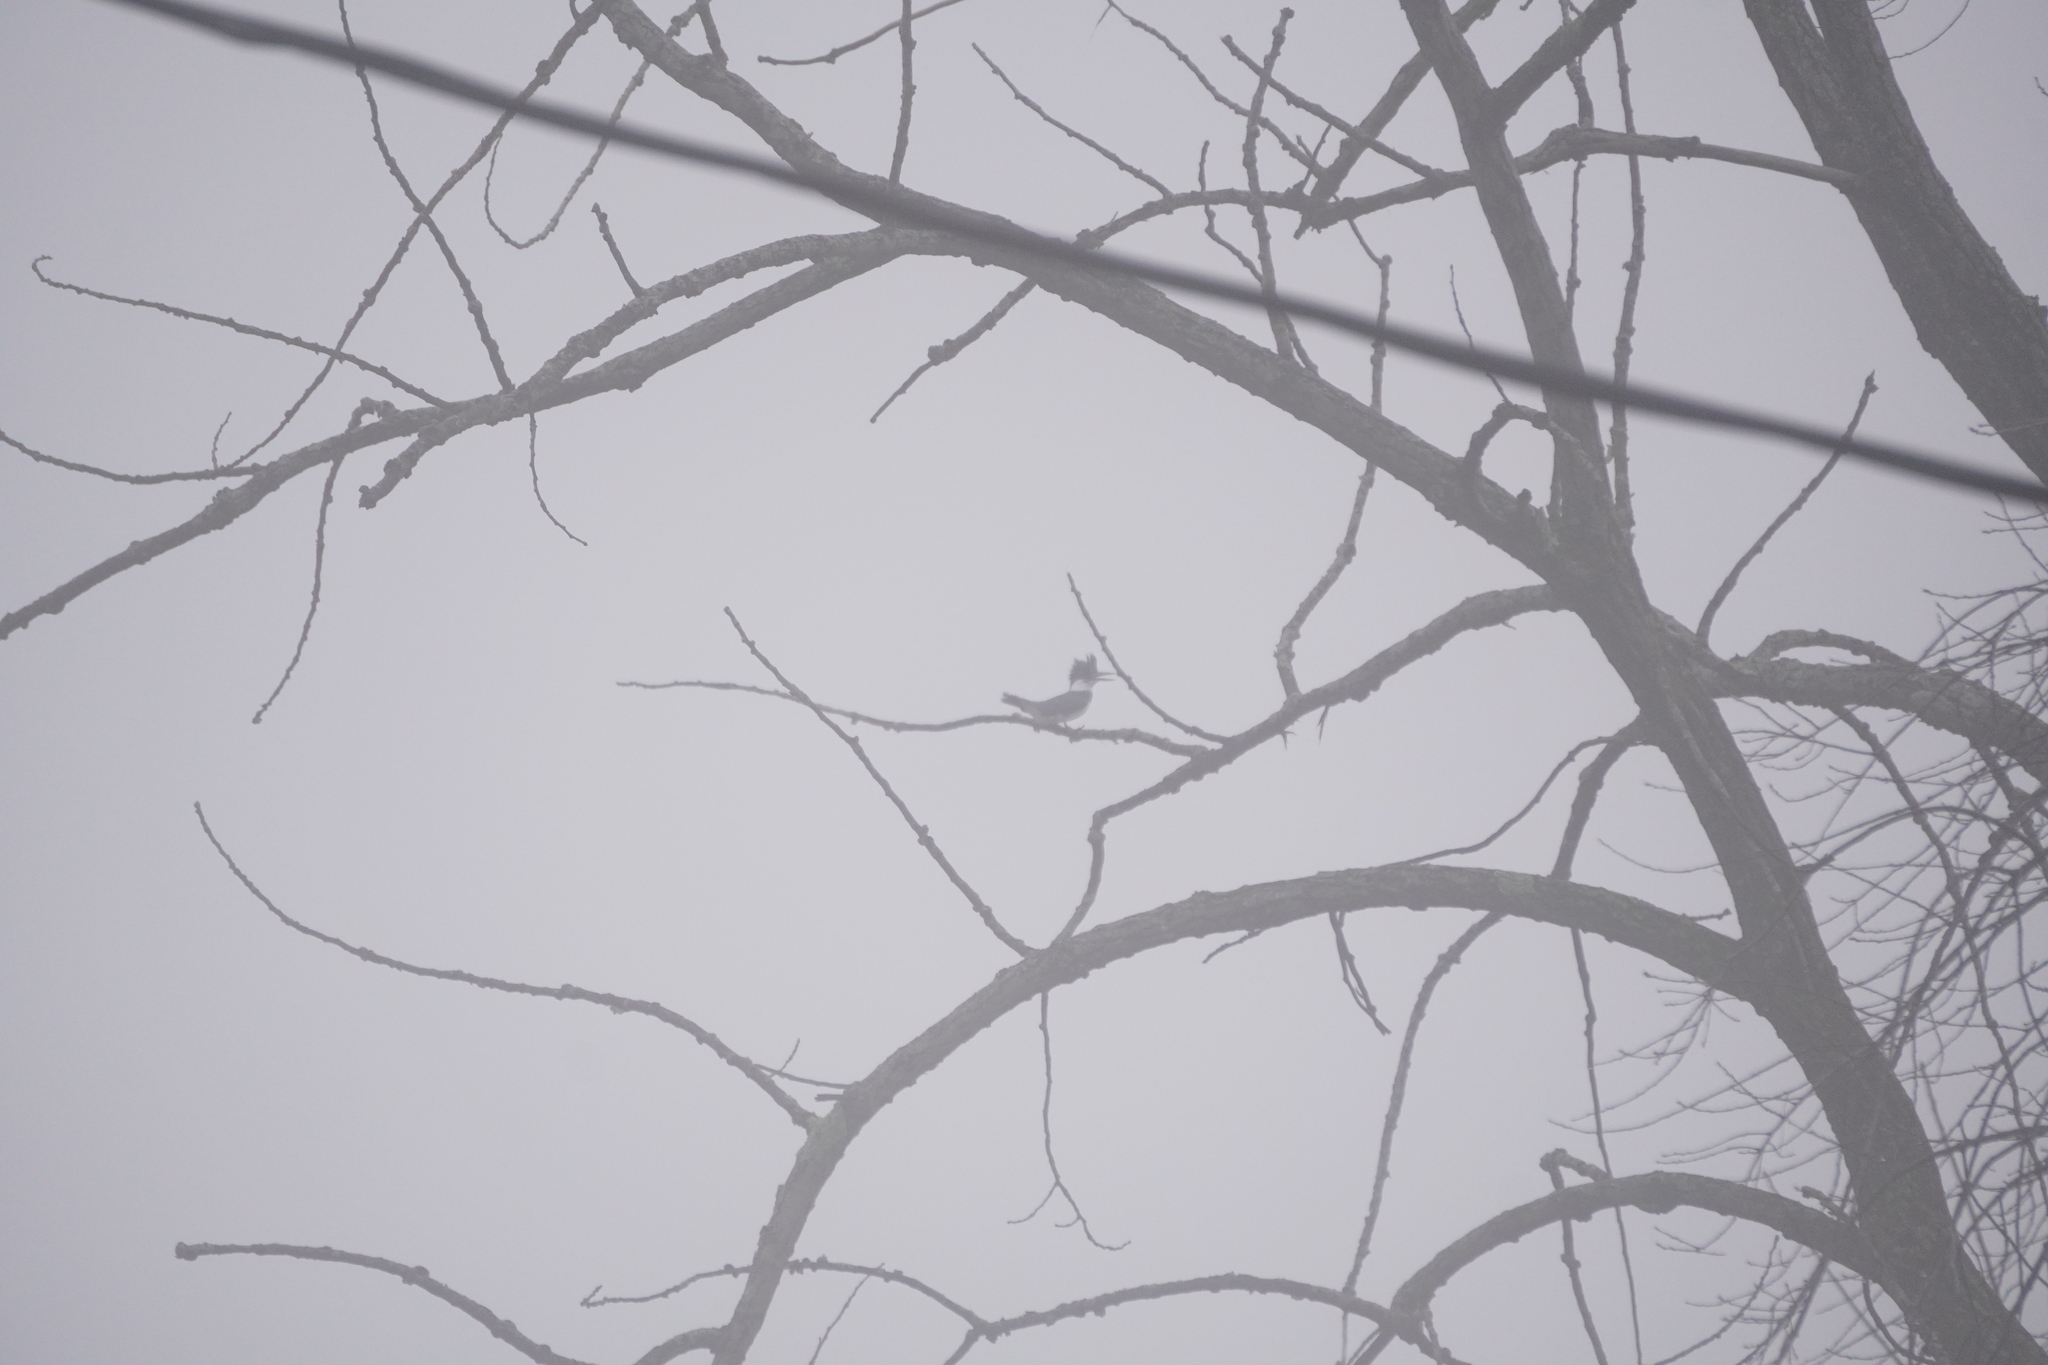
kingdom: Animalia
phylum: Chordata
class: Aves
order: Coraciiformes
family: Alcedinidae
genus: Megaceryle
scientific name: Megaceryle alcyon
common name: Belted kingfisher
